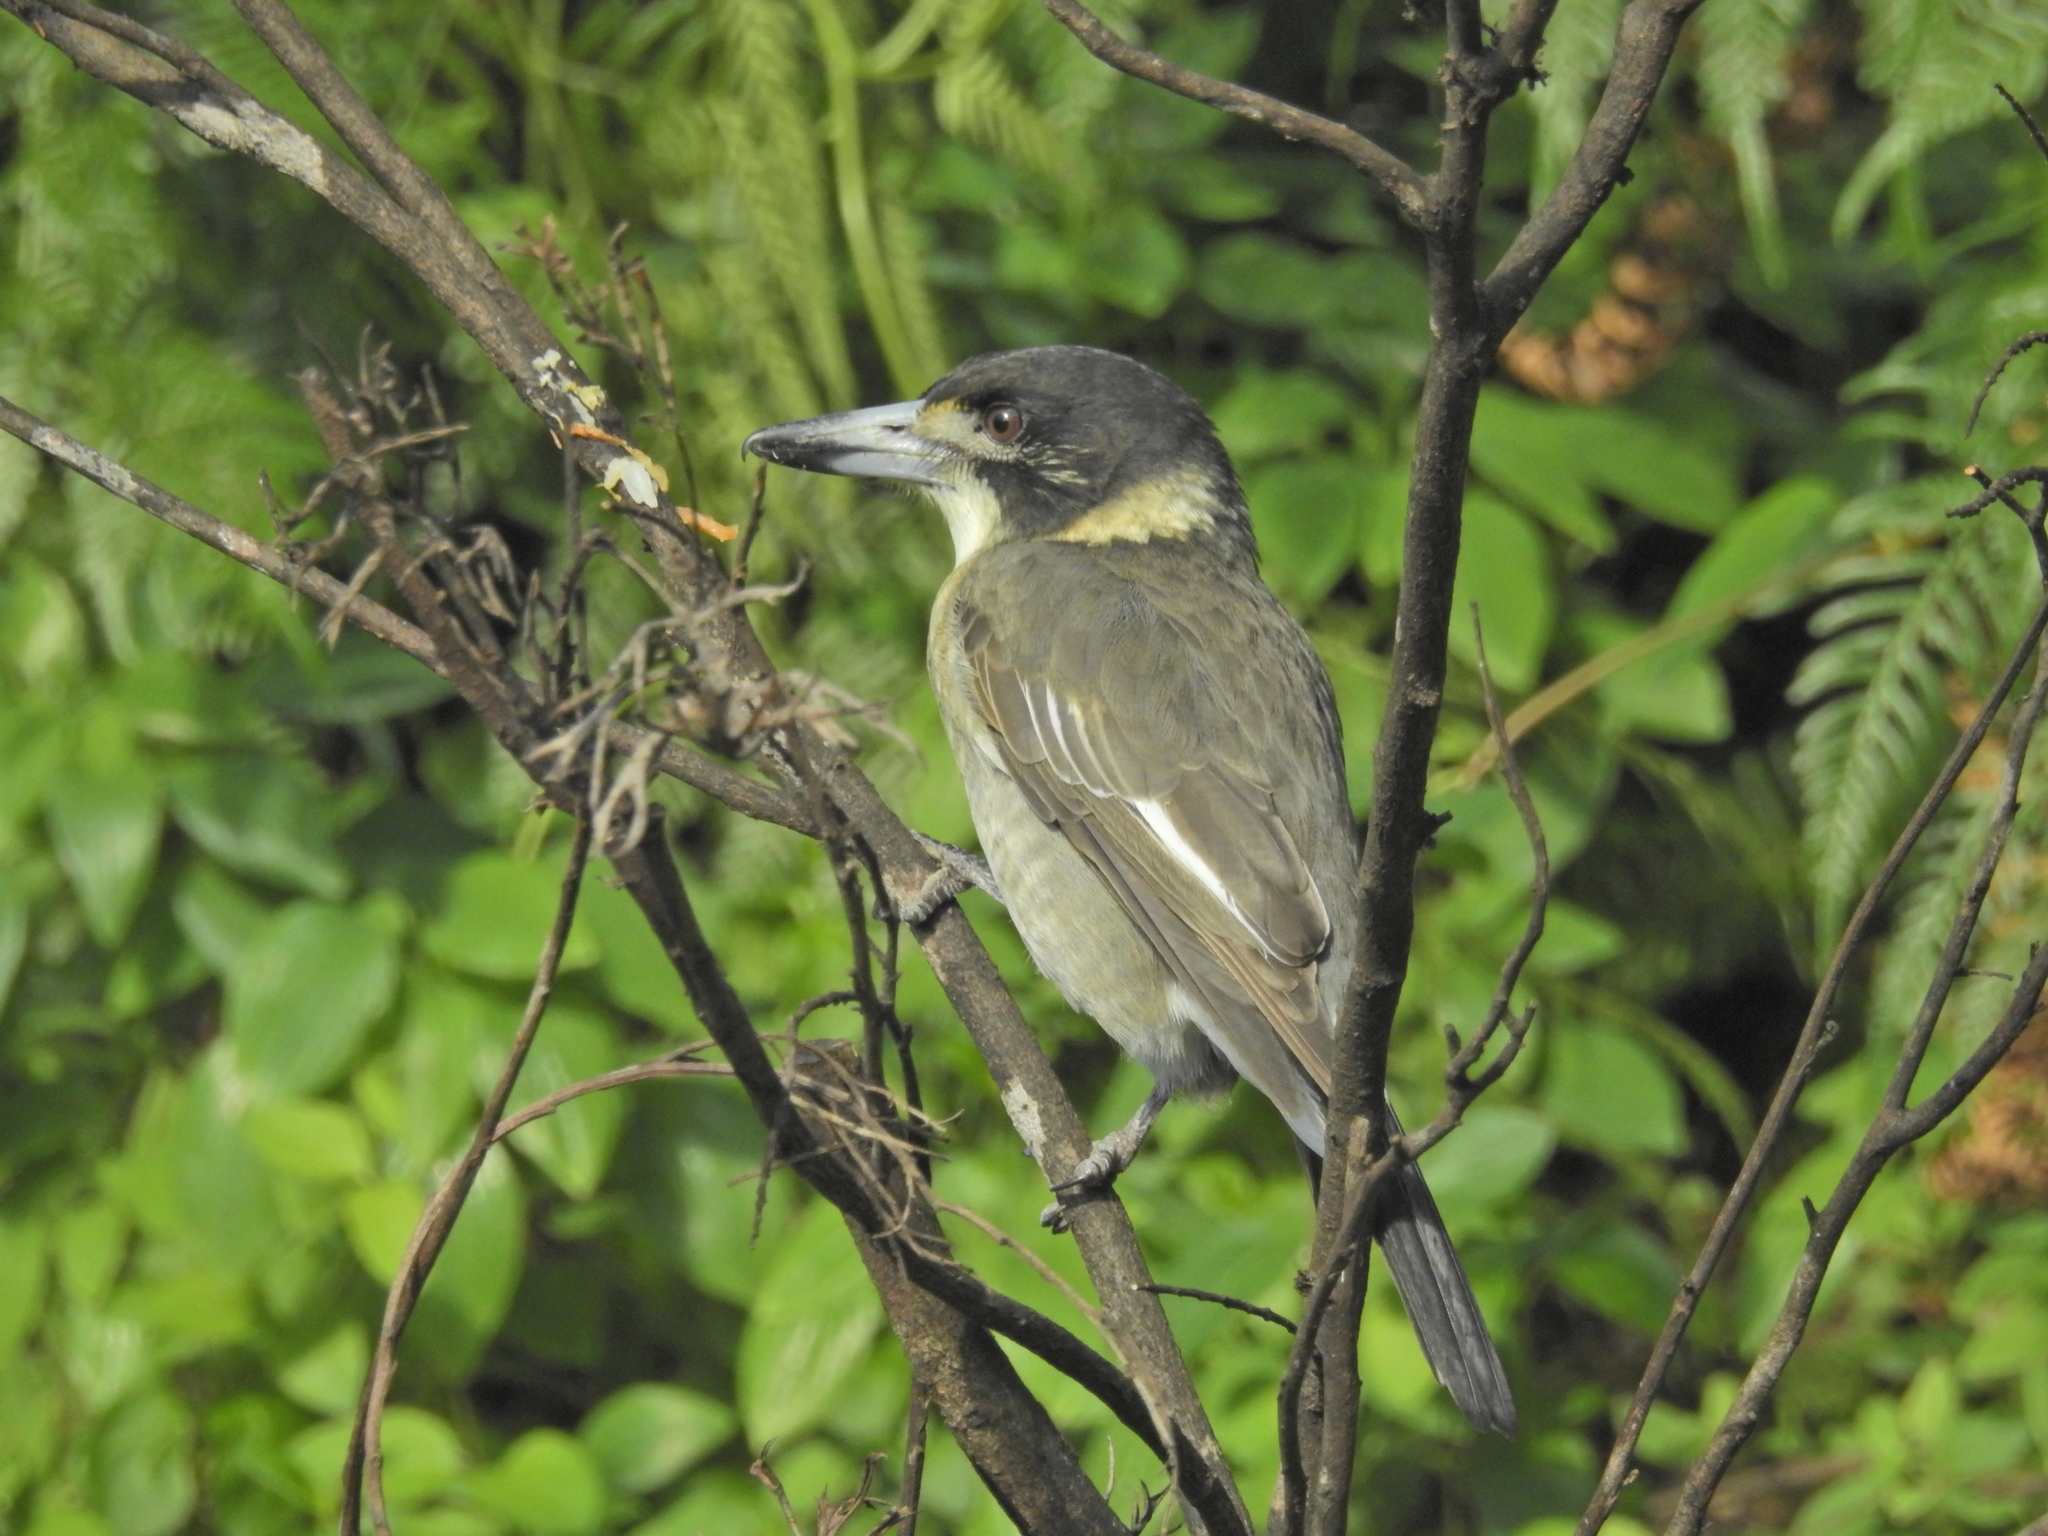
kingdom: Animalia
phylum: Chordata
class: Aves
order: Passeriformes
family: Cracticidae
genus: Cracticus
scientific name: Cracticus torquatus
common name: Grey butcherbird
